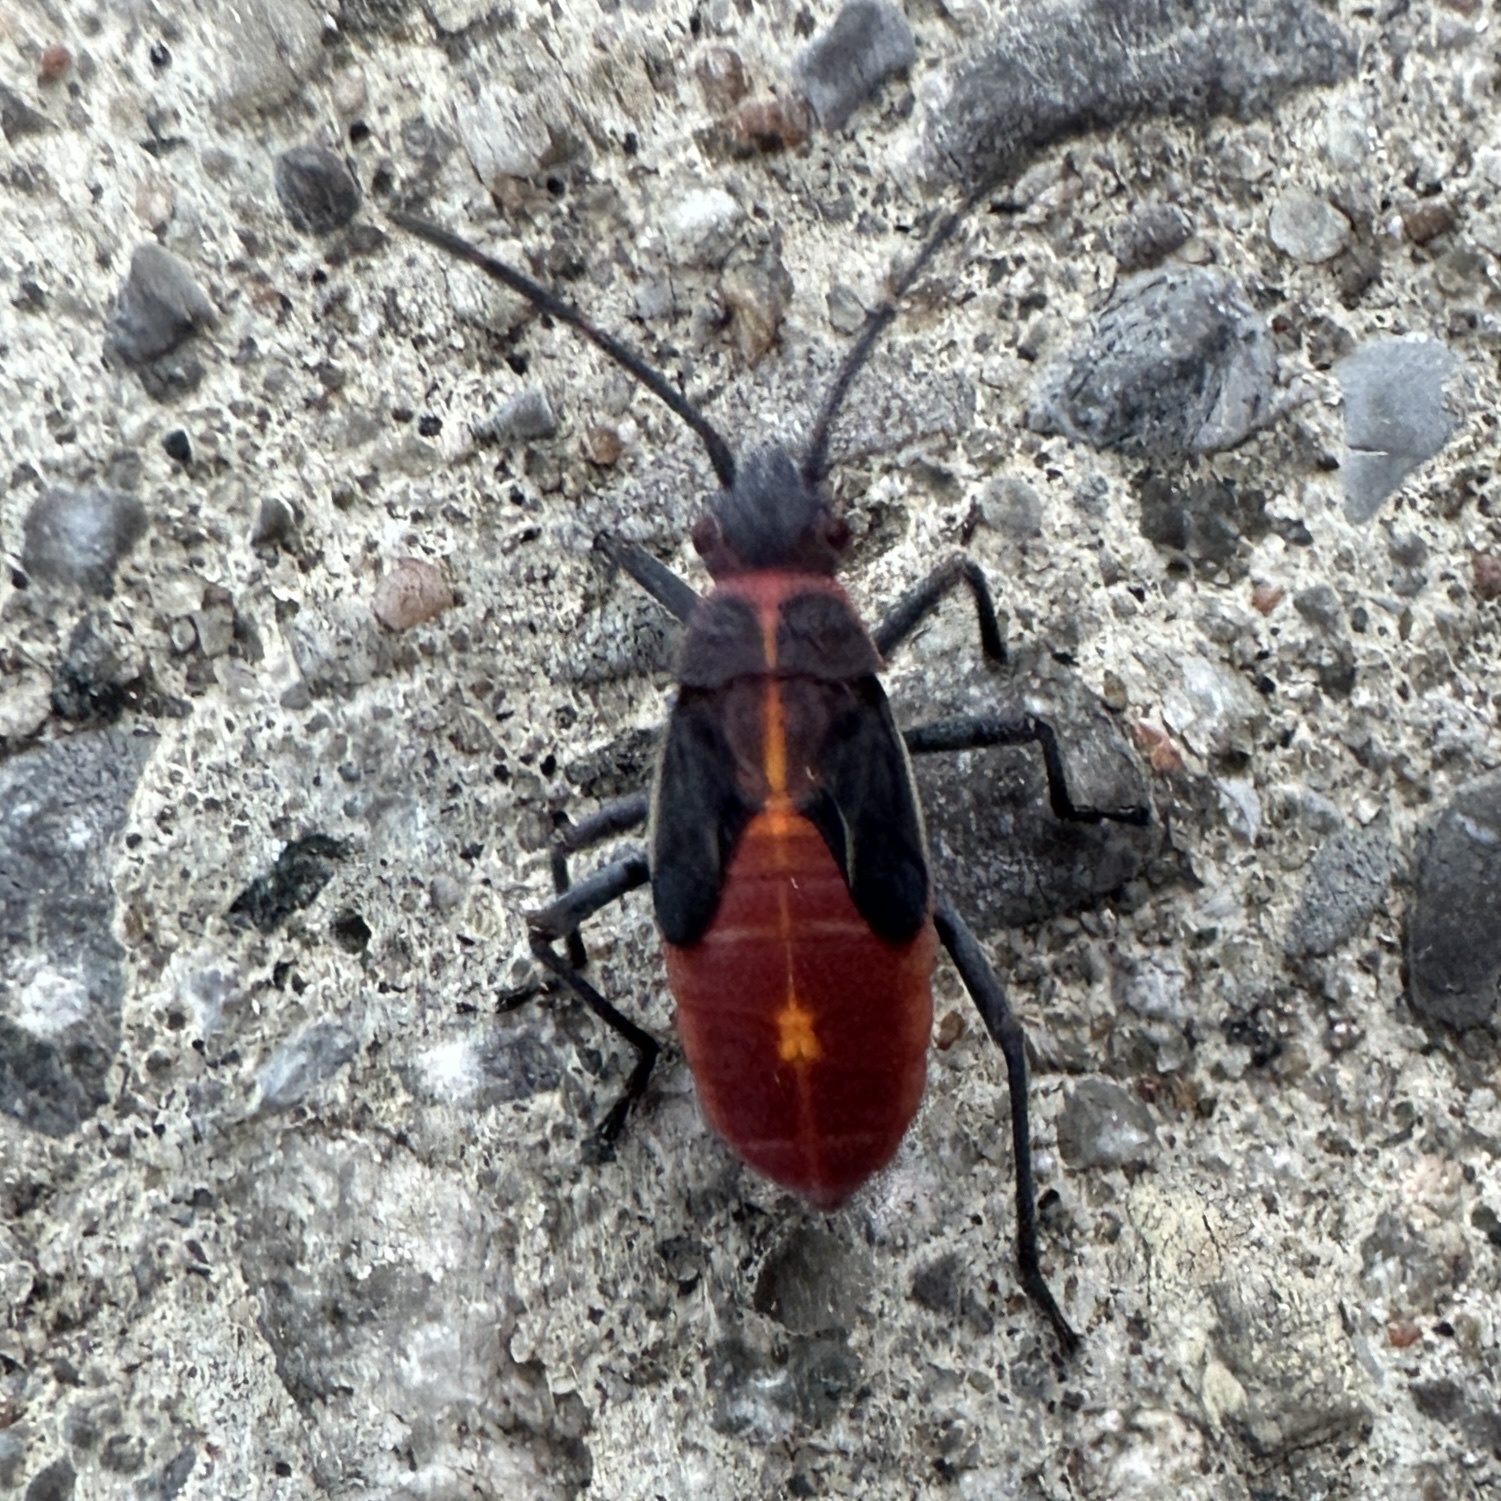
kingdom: Animalia
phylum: Arthropoda
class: Insecta
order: Hemiptera
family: Rhopalidae
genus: Boisea
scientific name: Boisea trivittata
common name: Boxelder bug
